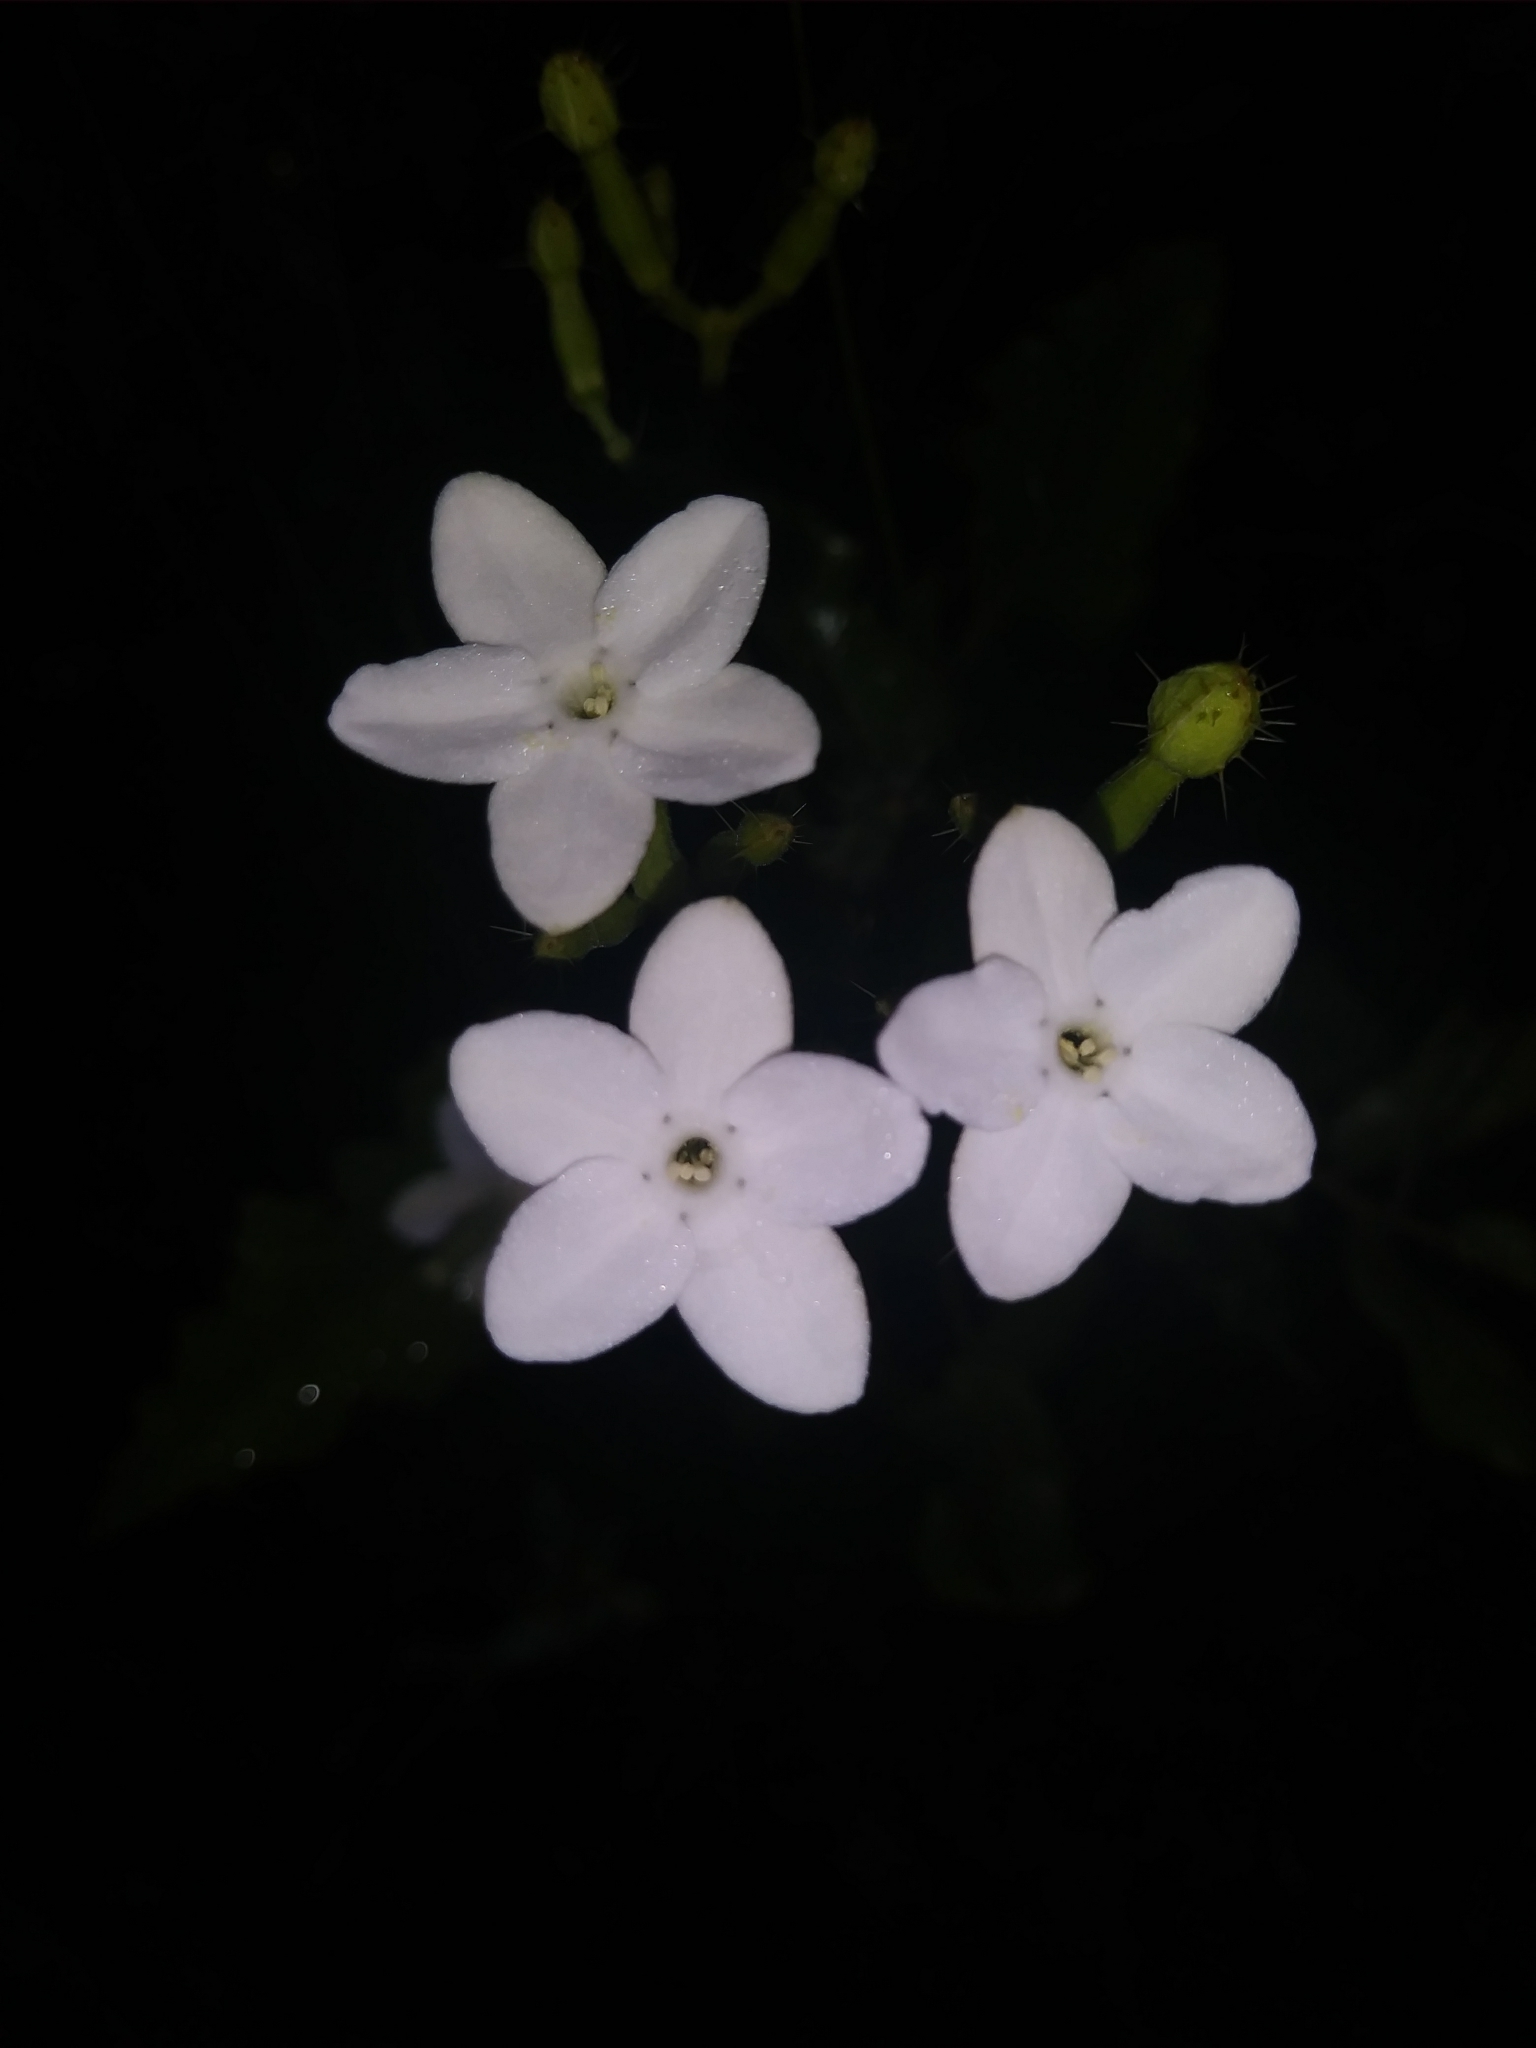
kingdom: Plantae
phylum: Tracheophyta
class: Magnoliopsida
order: Malpighiales
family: Euphorbiaceae
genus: Cnidoscolus
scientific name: Cnidoscolus stimulosus
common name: Bull-nettle
